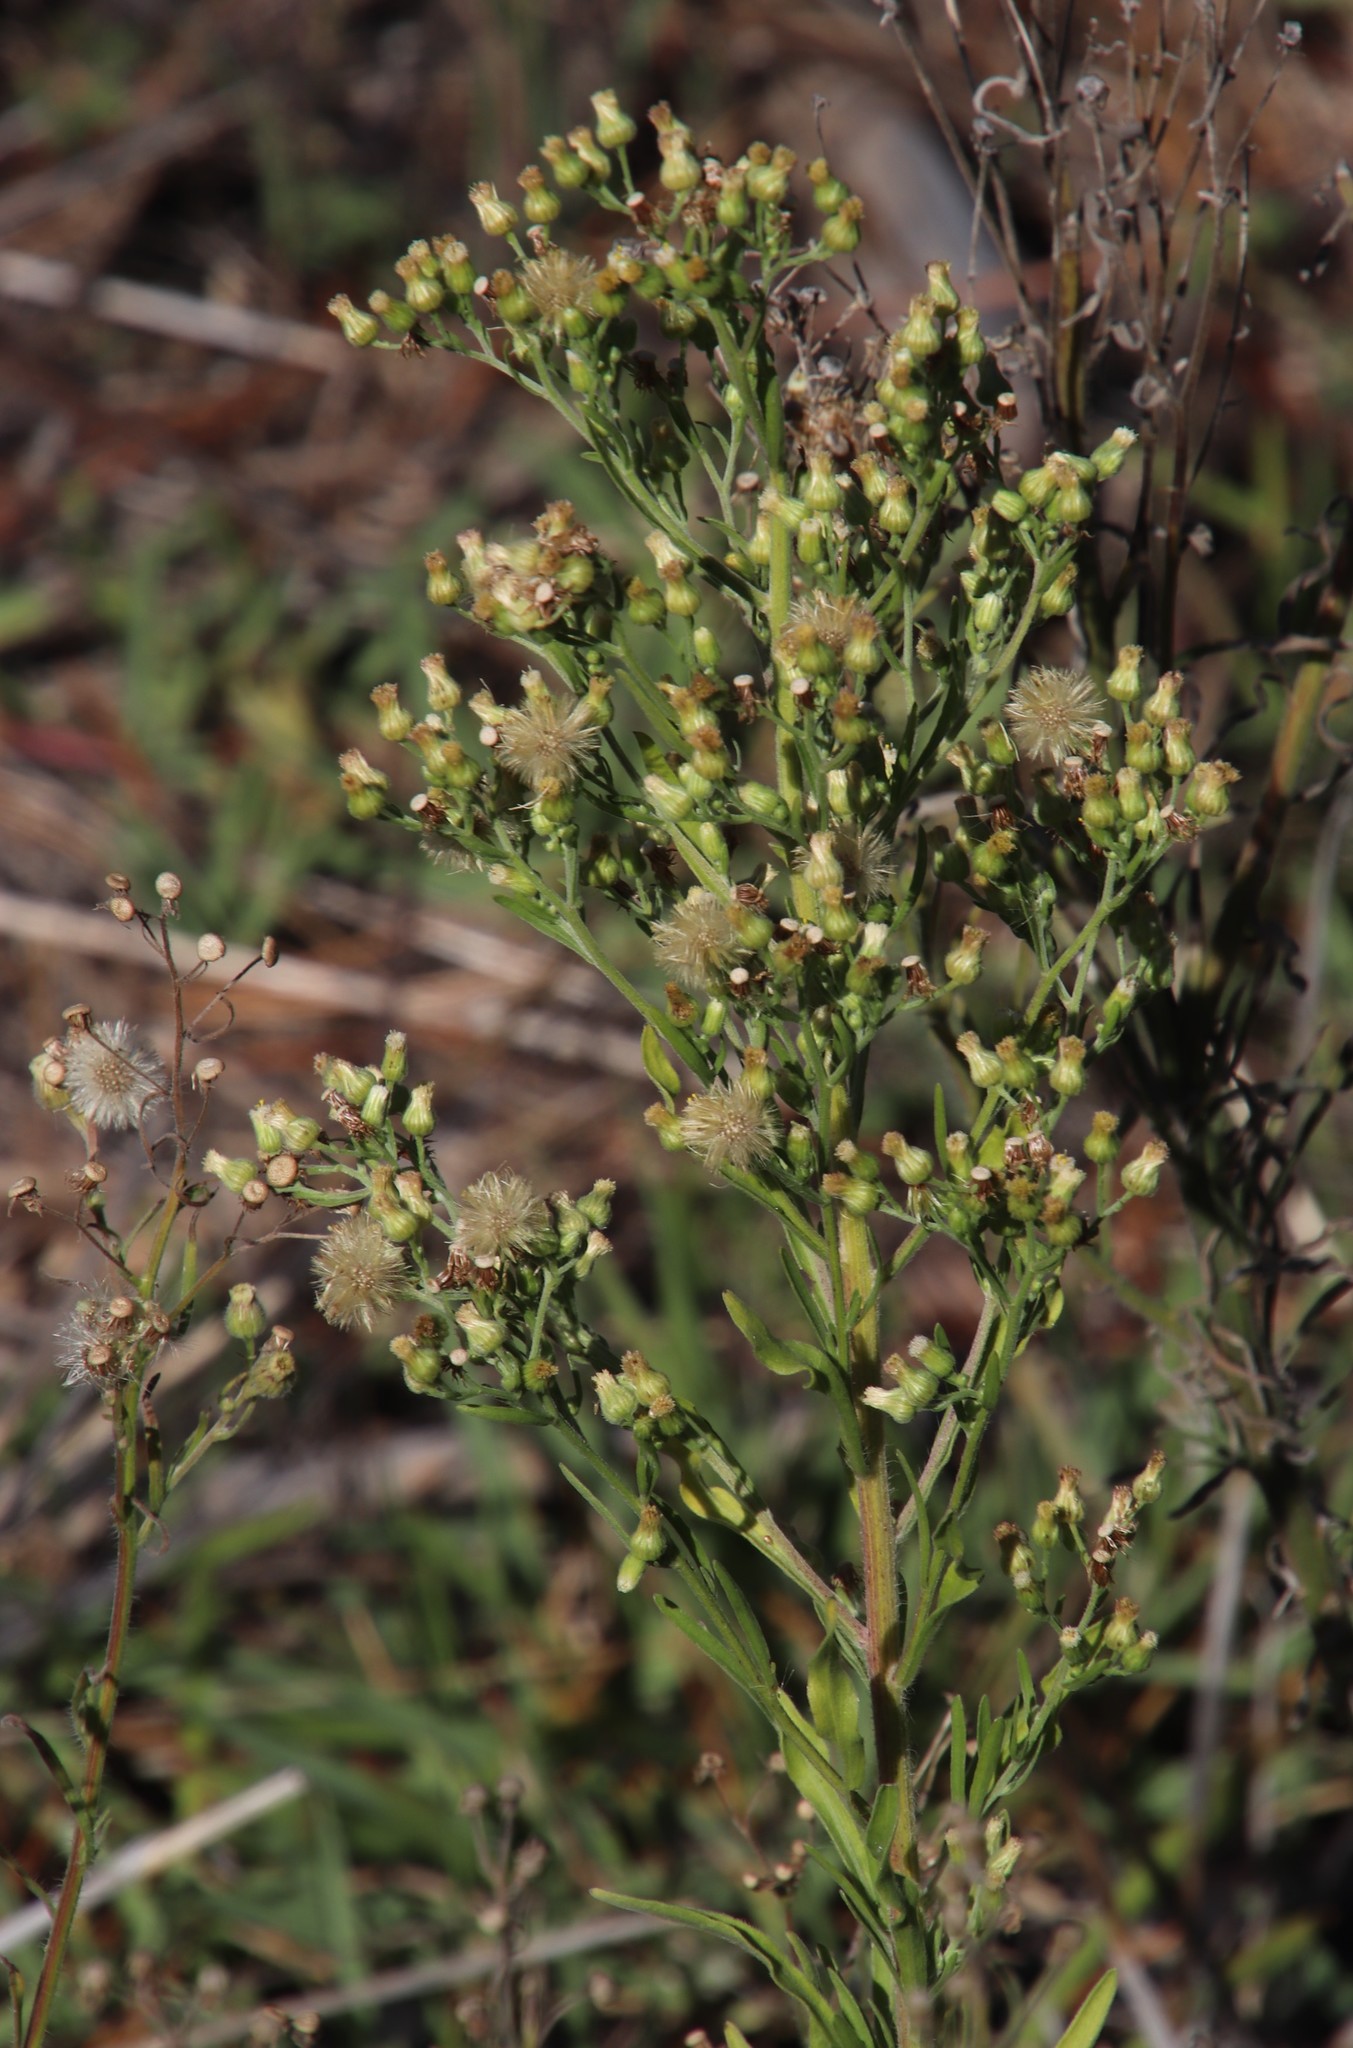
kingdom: Plantae
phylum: Tracheophyta
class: Magnoliopsida
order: Asterales
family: Asteraceae
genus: Erigeron
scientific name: Erigeron sumatrensis
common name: Daisy
